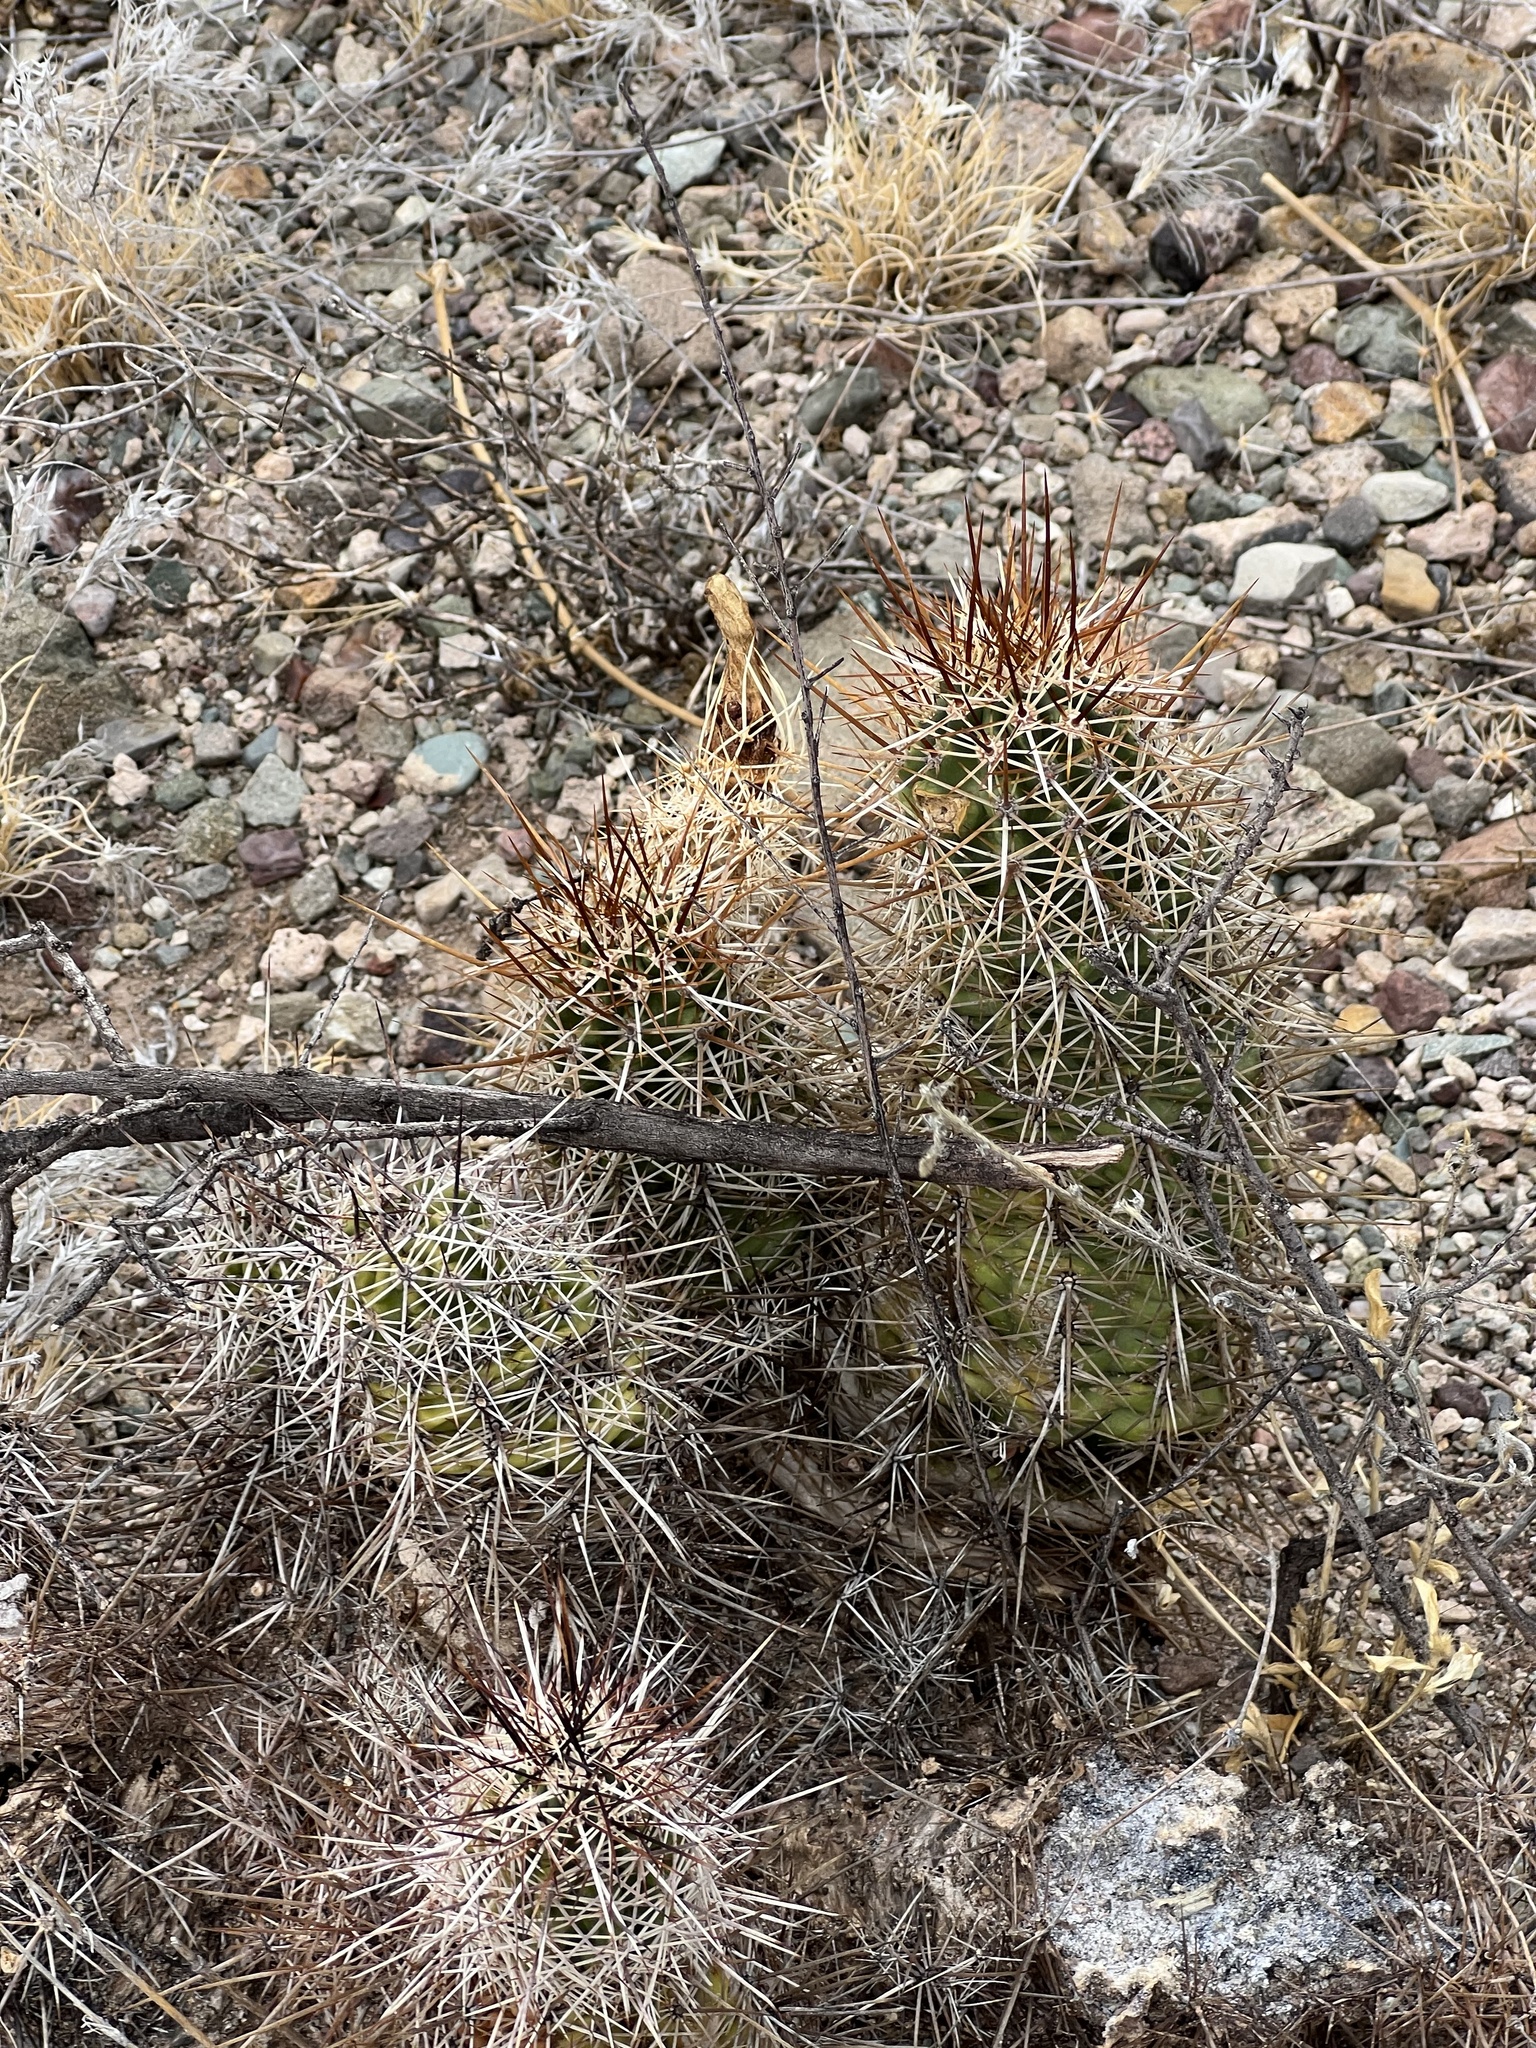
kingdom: Plantae
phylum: Tracheophyta
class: Magnoliopsida
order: Caryophyllales
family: Cactaceae
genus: Echinocereus
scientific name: Echinocereus fasciculatus
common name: Bundle hedgehog
